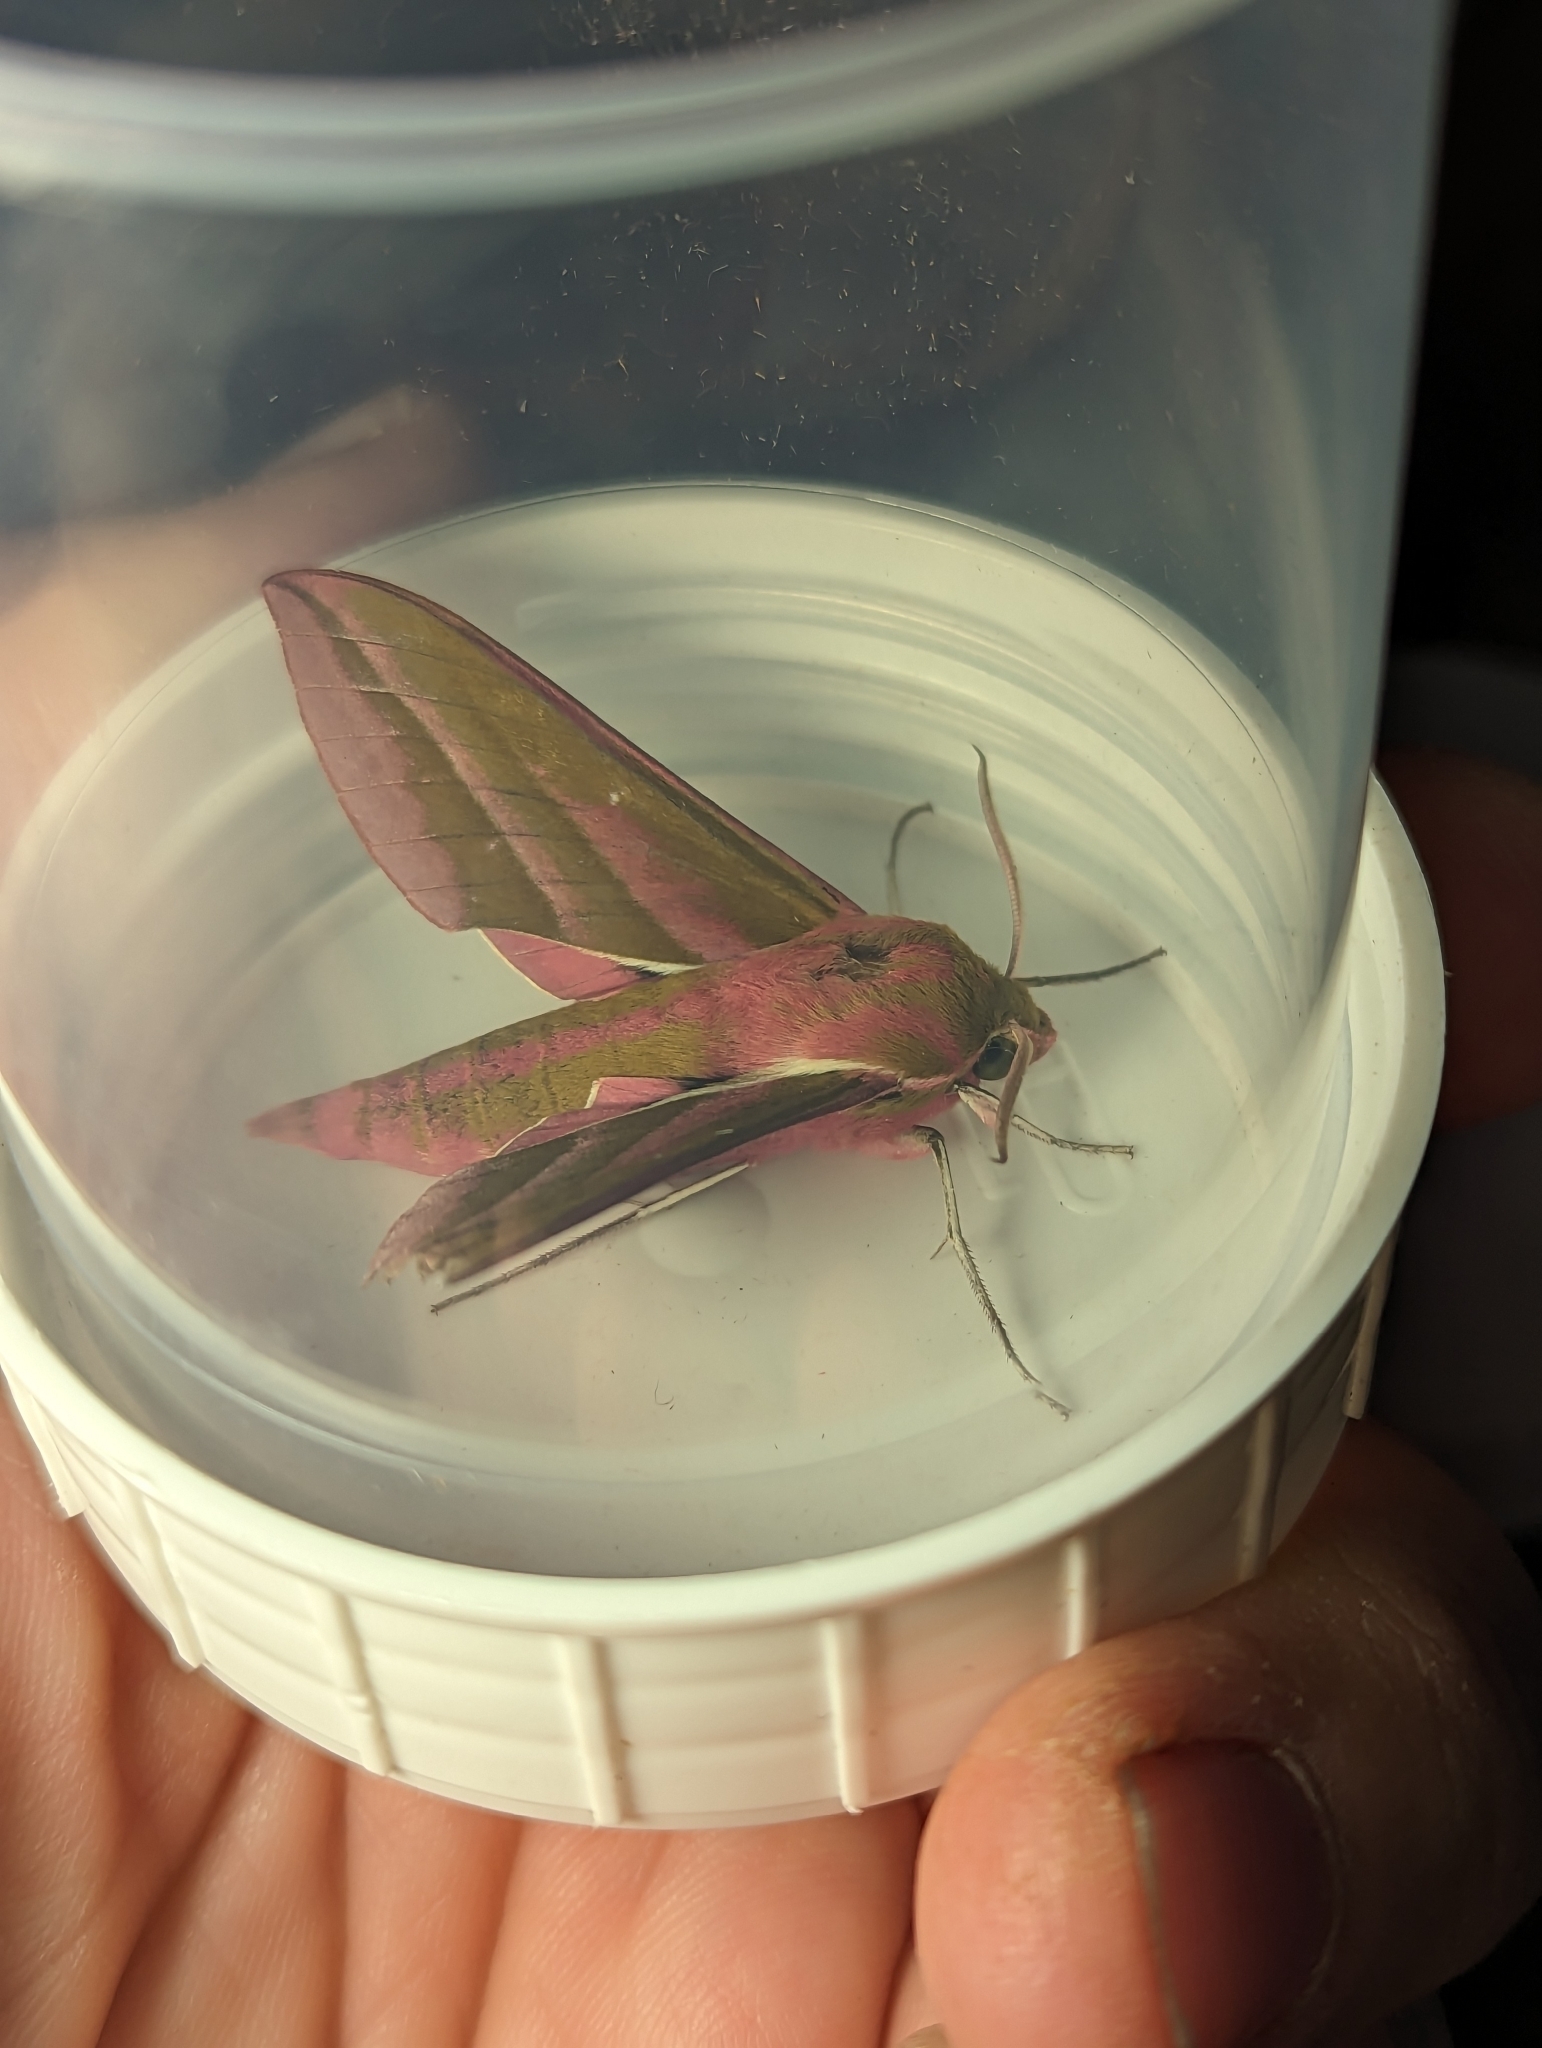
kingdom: Animalia
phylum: Arthropoda
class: Insecta
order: Lepidoptera
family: Sphingidae
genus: Deilephila
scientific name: Deilephila elpenor
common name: Elephant hawk-moth
